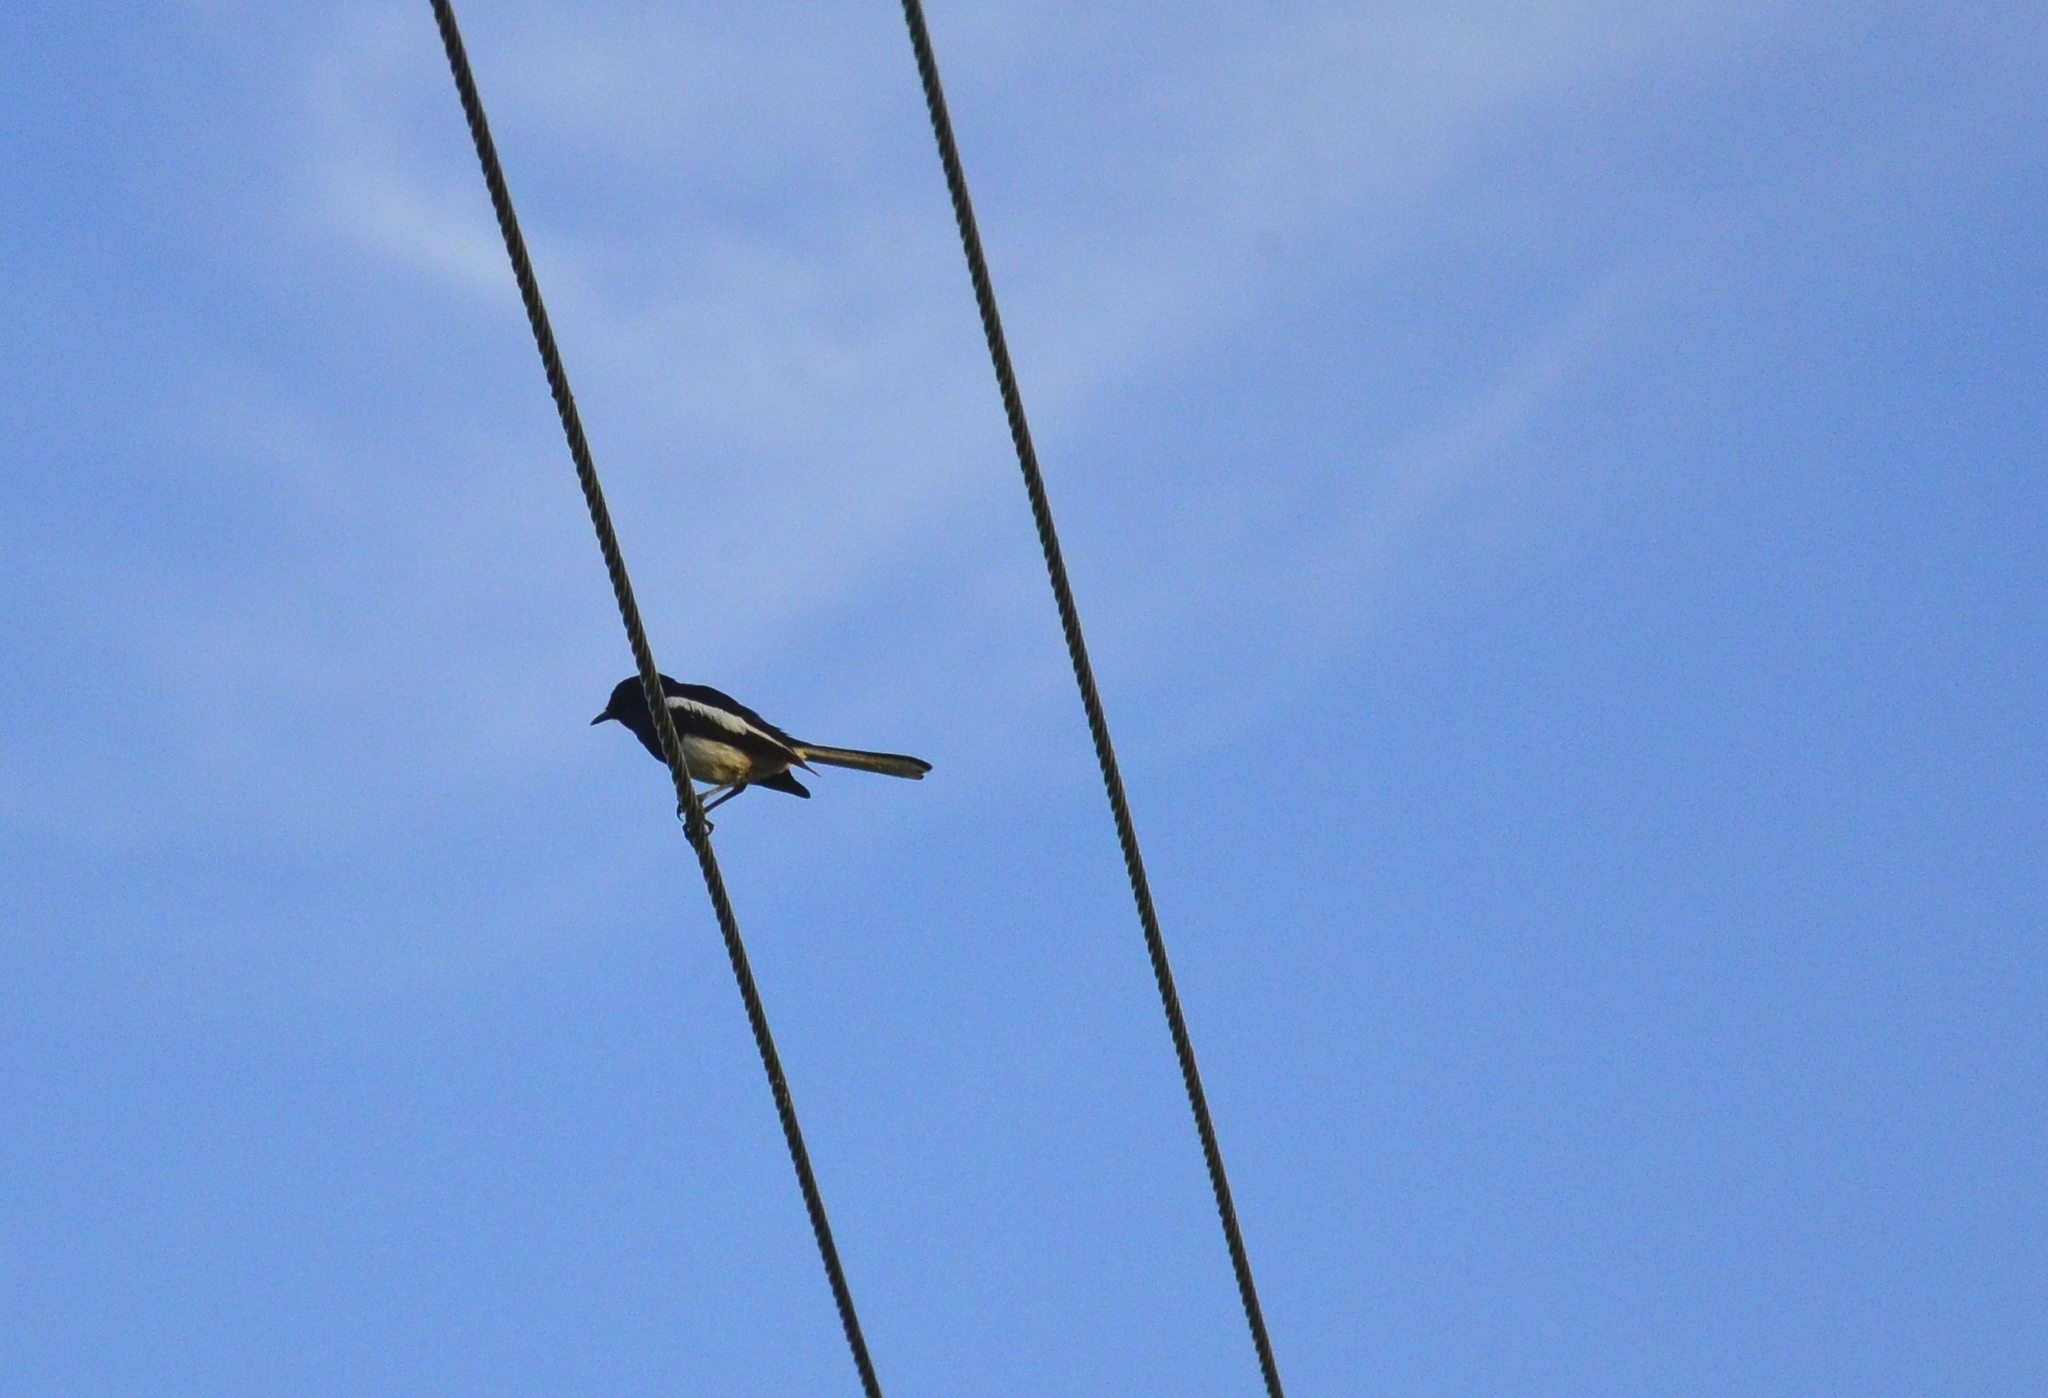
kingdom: Animalia
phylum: Chordata
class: Aves
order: Passeriformes
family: Muscicapidae
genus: Copsychus
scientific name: Copsychus saularis
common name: Oriental magpie-robin
